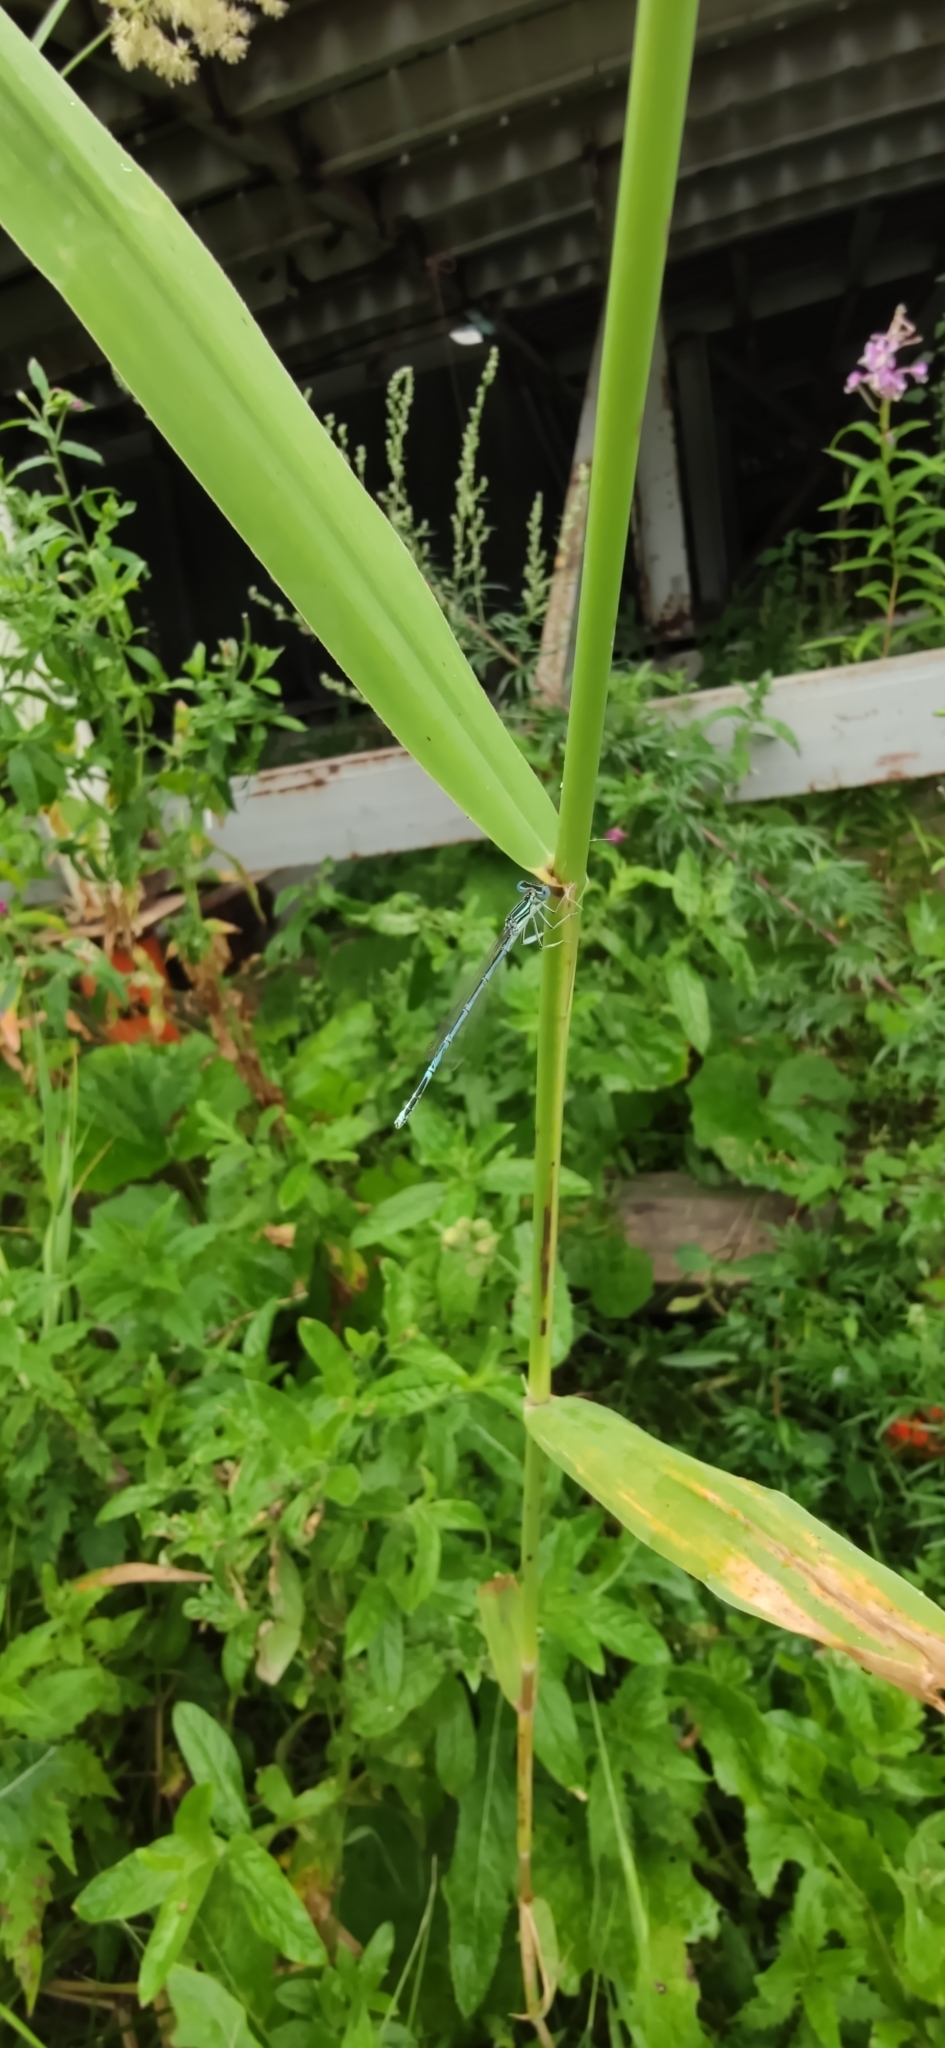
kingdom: Animalia
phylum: Arthropoda
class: Insecta
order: Odonata
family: Platycnemididae
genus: Platycnemis
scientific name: Platycnemis pennipes
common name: White-legged damselfly
